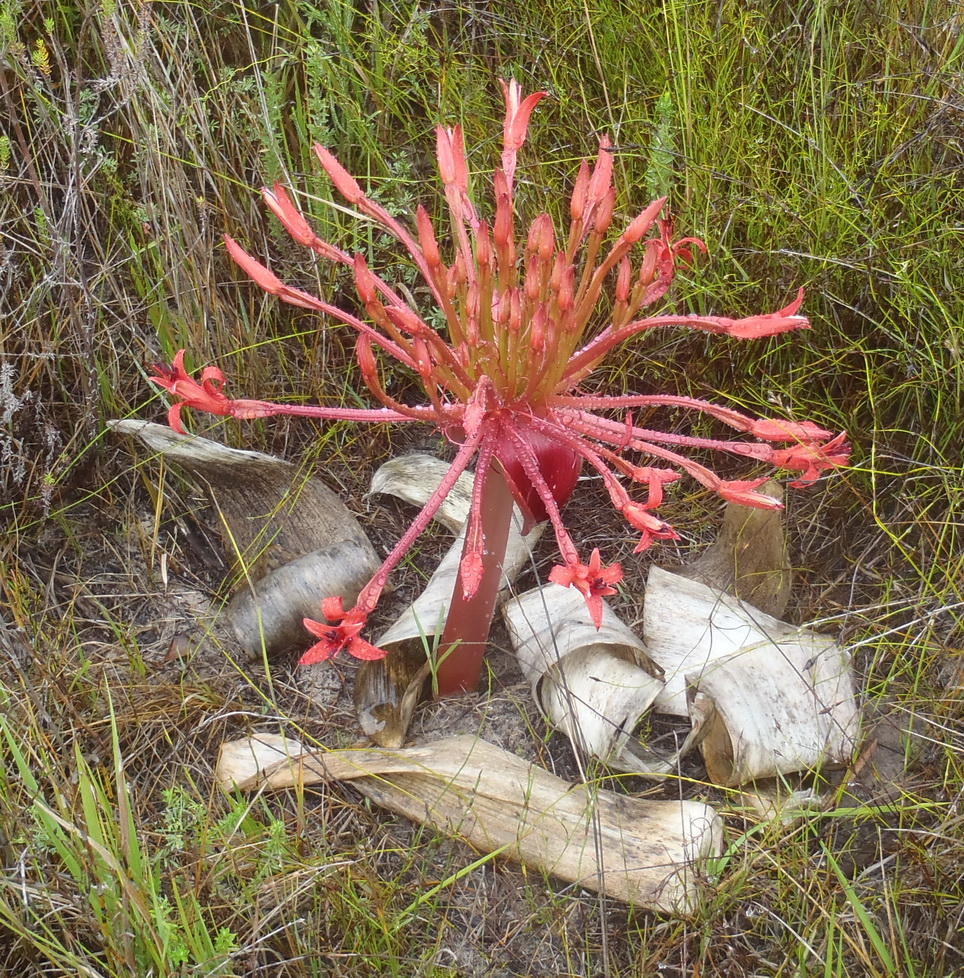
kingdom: Plantae
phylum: Tracheophyta
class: Liliopsida
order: Asparagales
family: Amaryllidaceae
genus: Brunsvigia
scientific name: Brunsvigia orientalis
